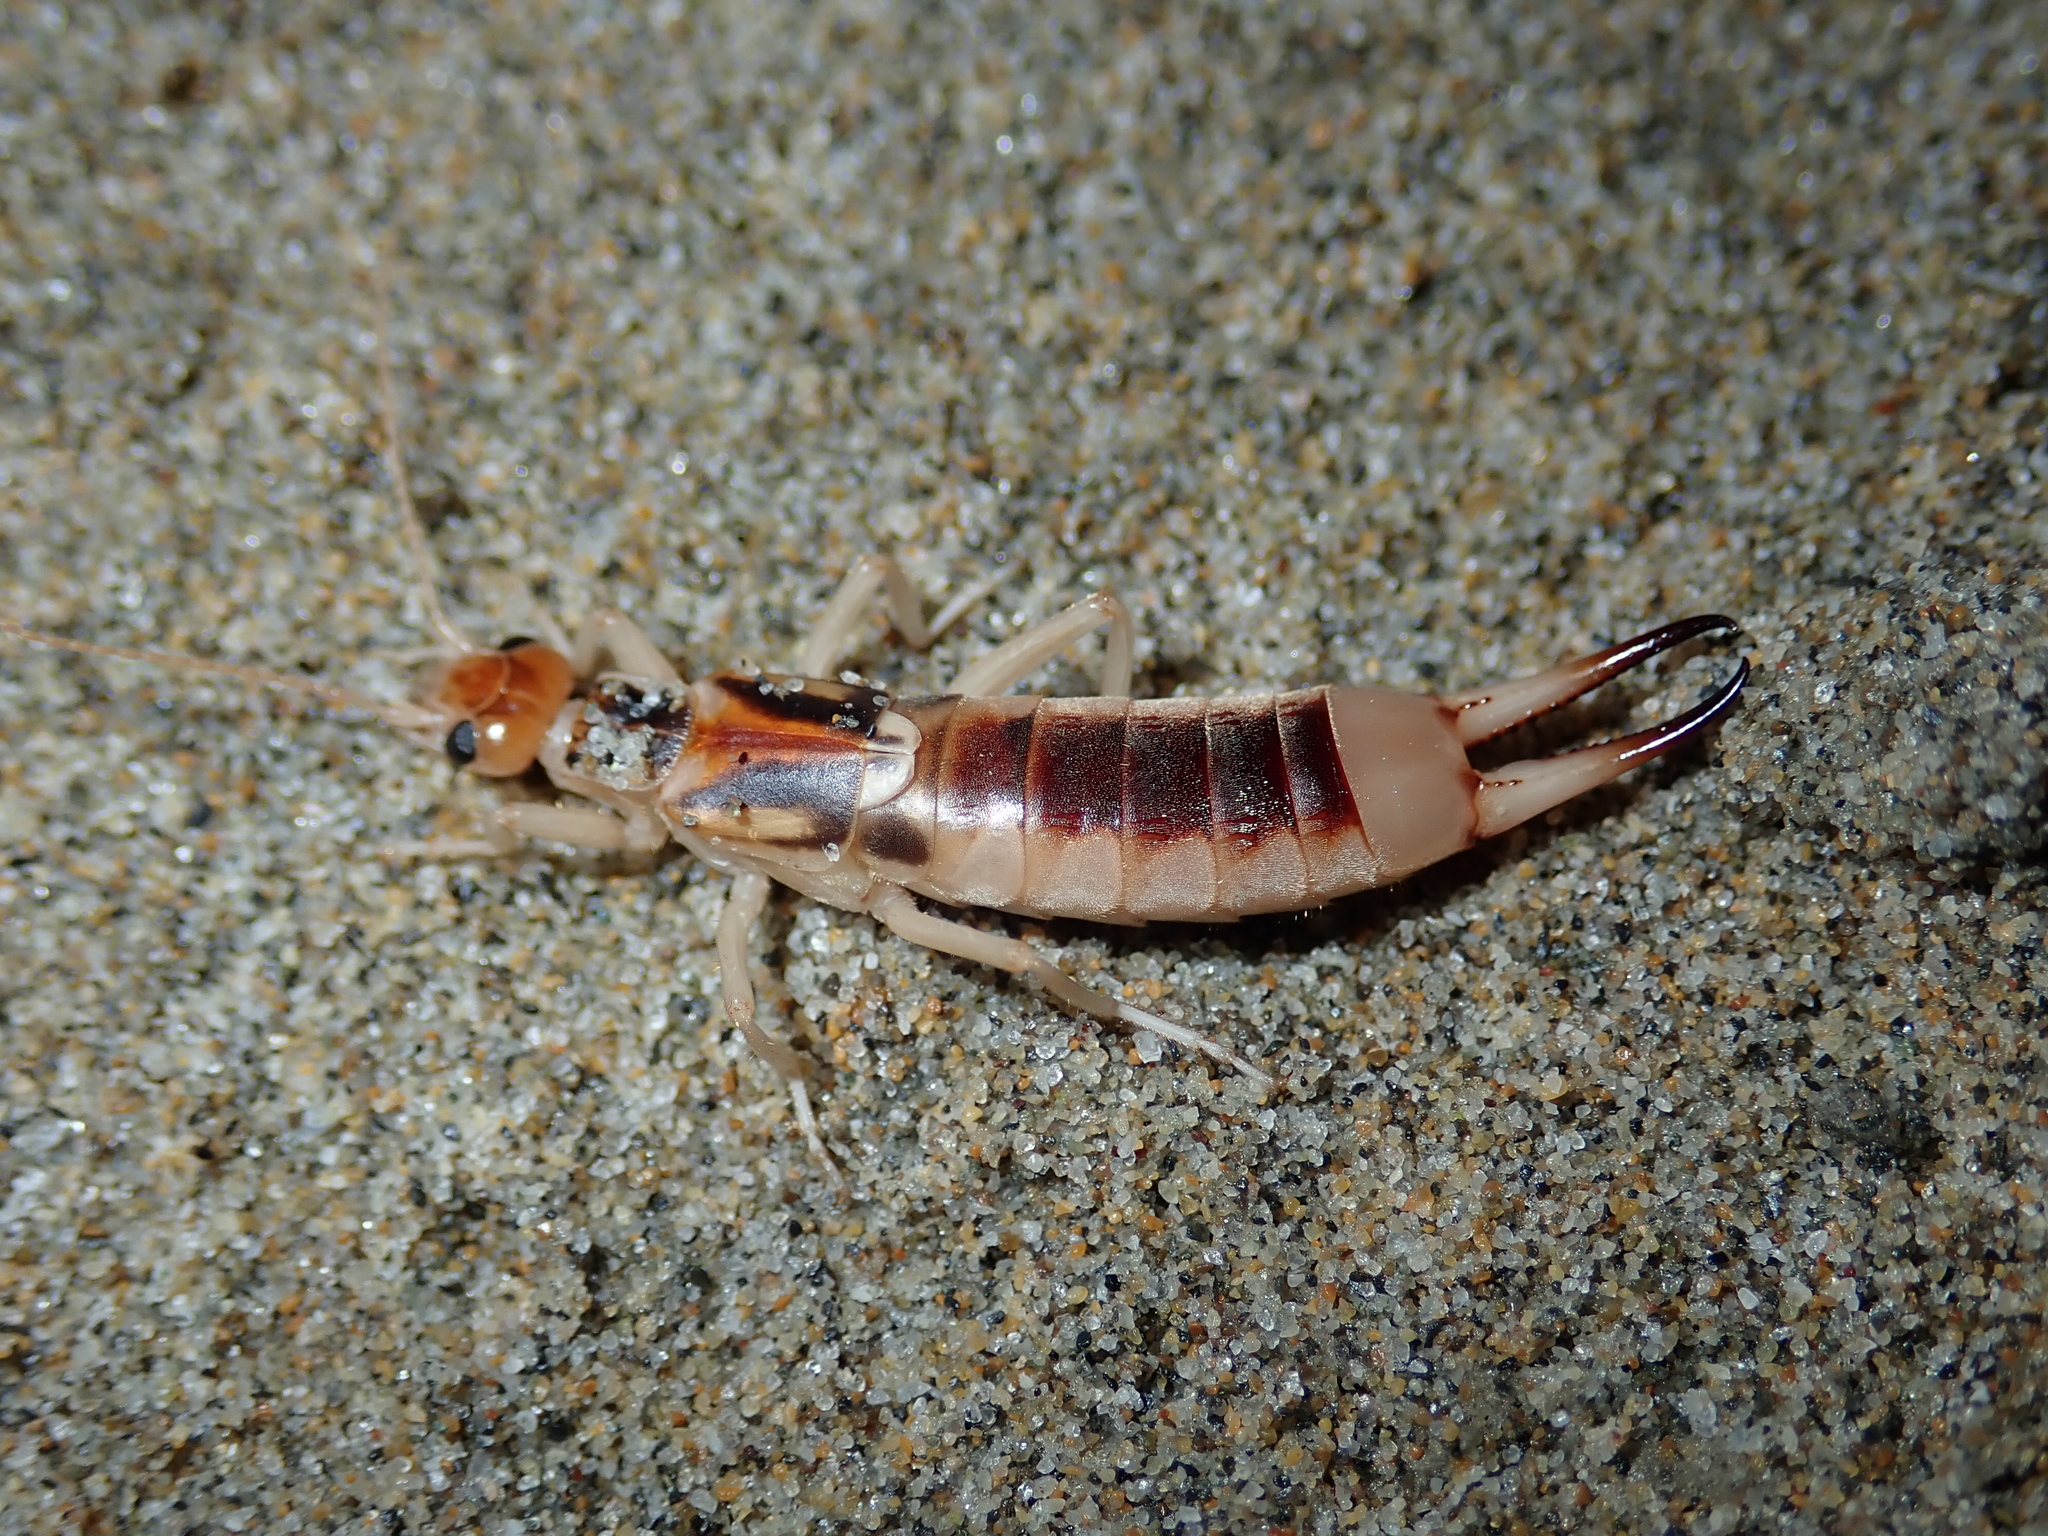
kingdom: Animalia
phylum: Arthropoda
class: Insecta
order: Dermaptera
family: Labiduridae
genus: Labidura
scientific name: Labidura riparia
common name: Striped earwig
